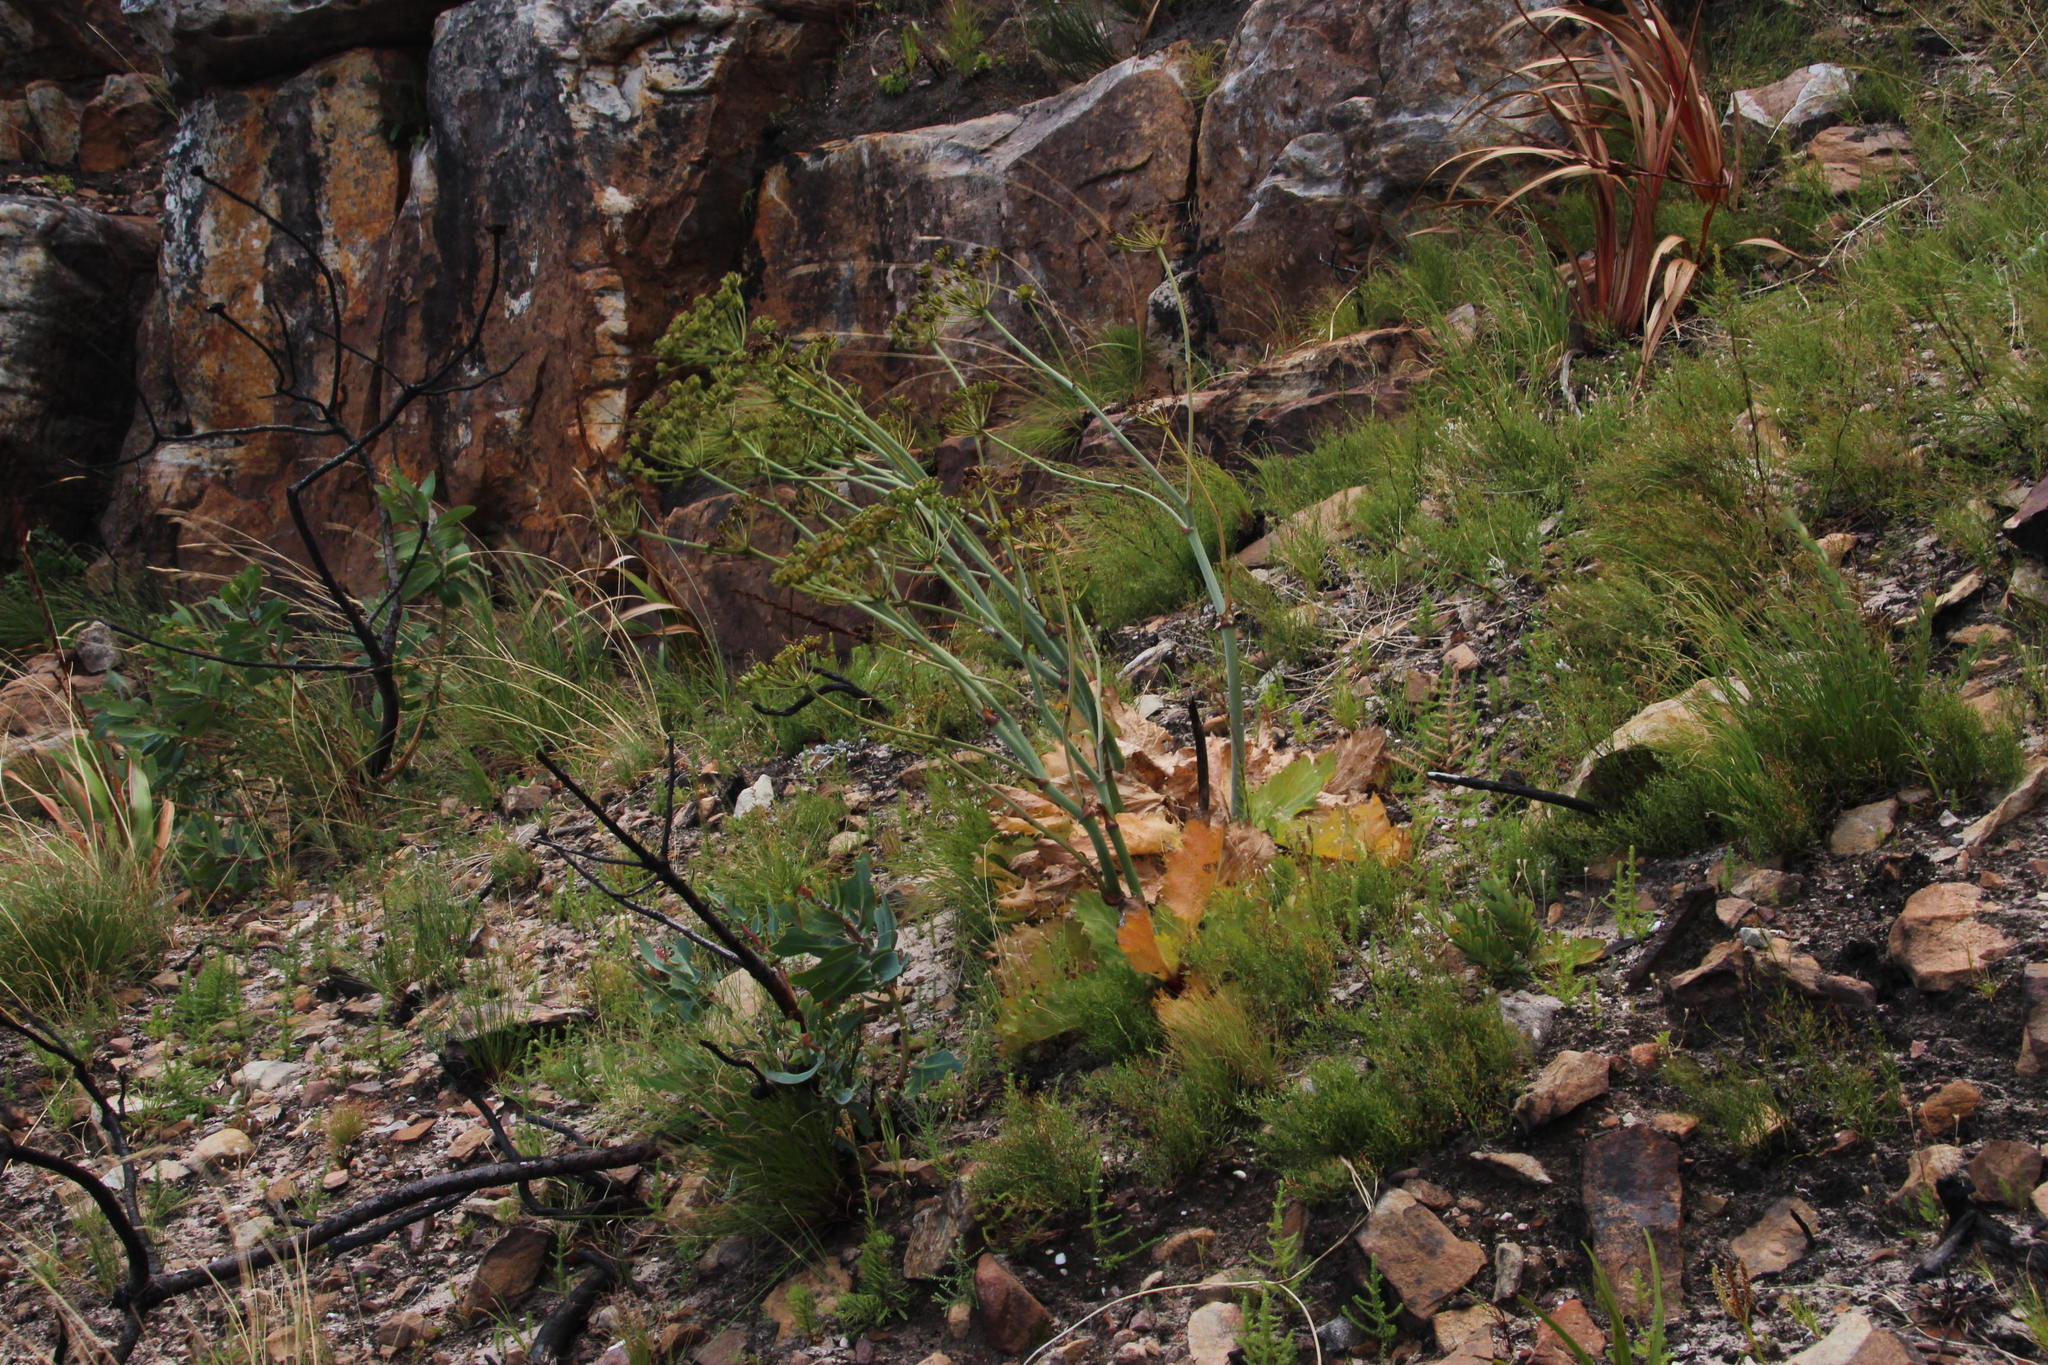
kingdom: Plantae
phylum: Tracheophyta
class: Magnoliopsida
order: Apiales
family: Apiaceae
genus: Lichtensteinia
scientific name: Lichtensteinia lacera
